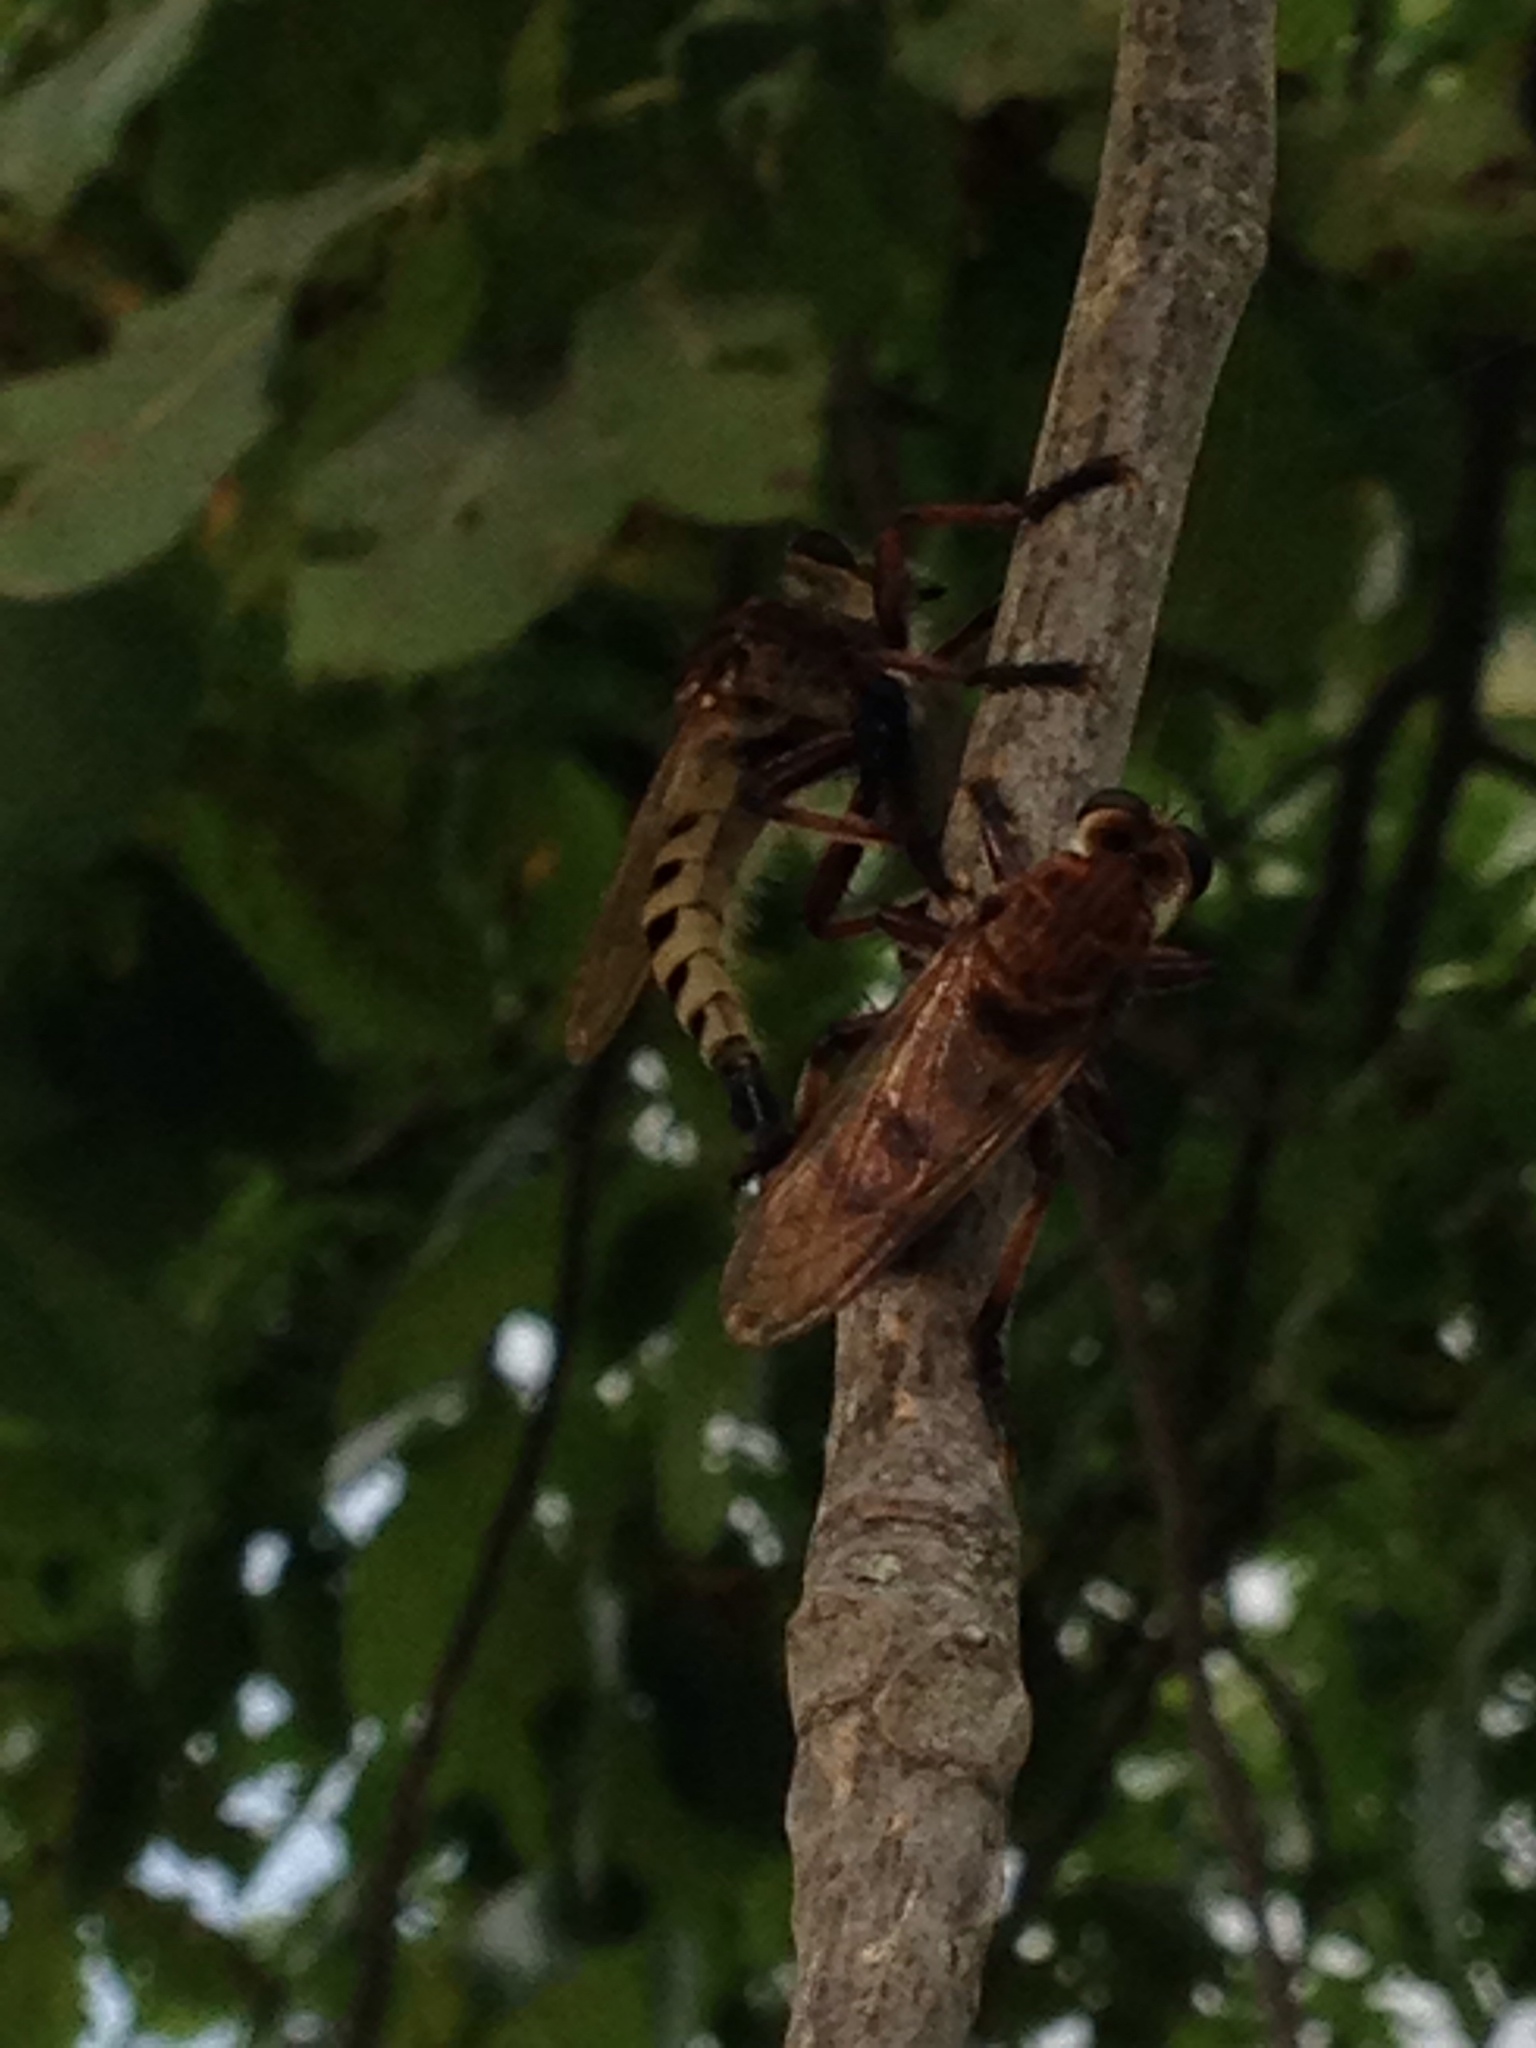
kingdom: Animalia
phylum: Arthropoda
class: Insecta
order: Diptera
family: Asilidae
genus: Promachus
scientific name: Promachus hinei
